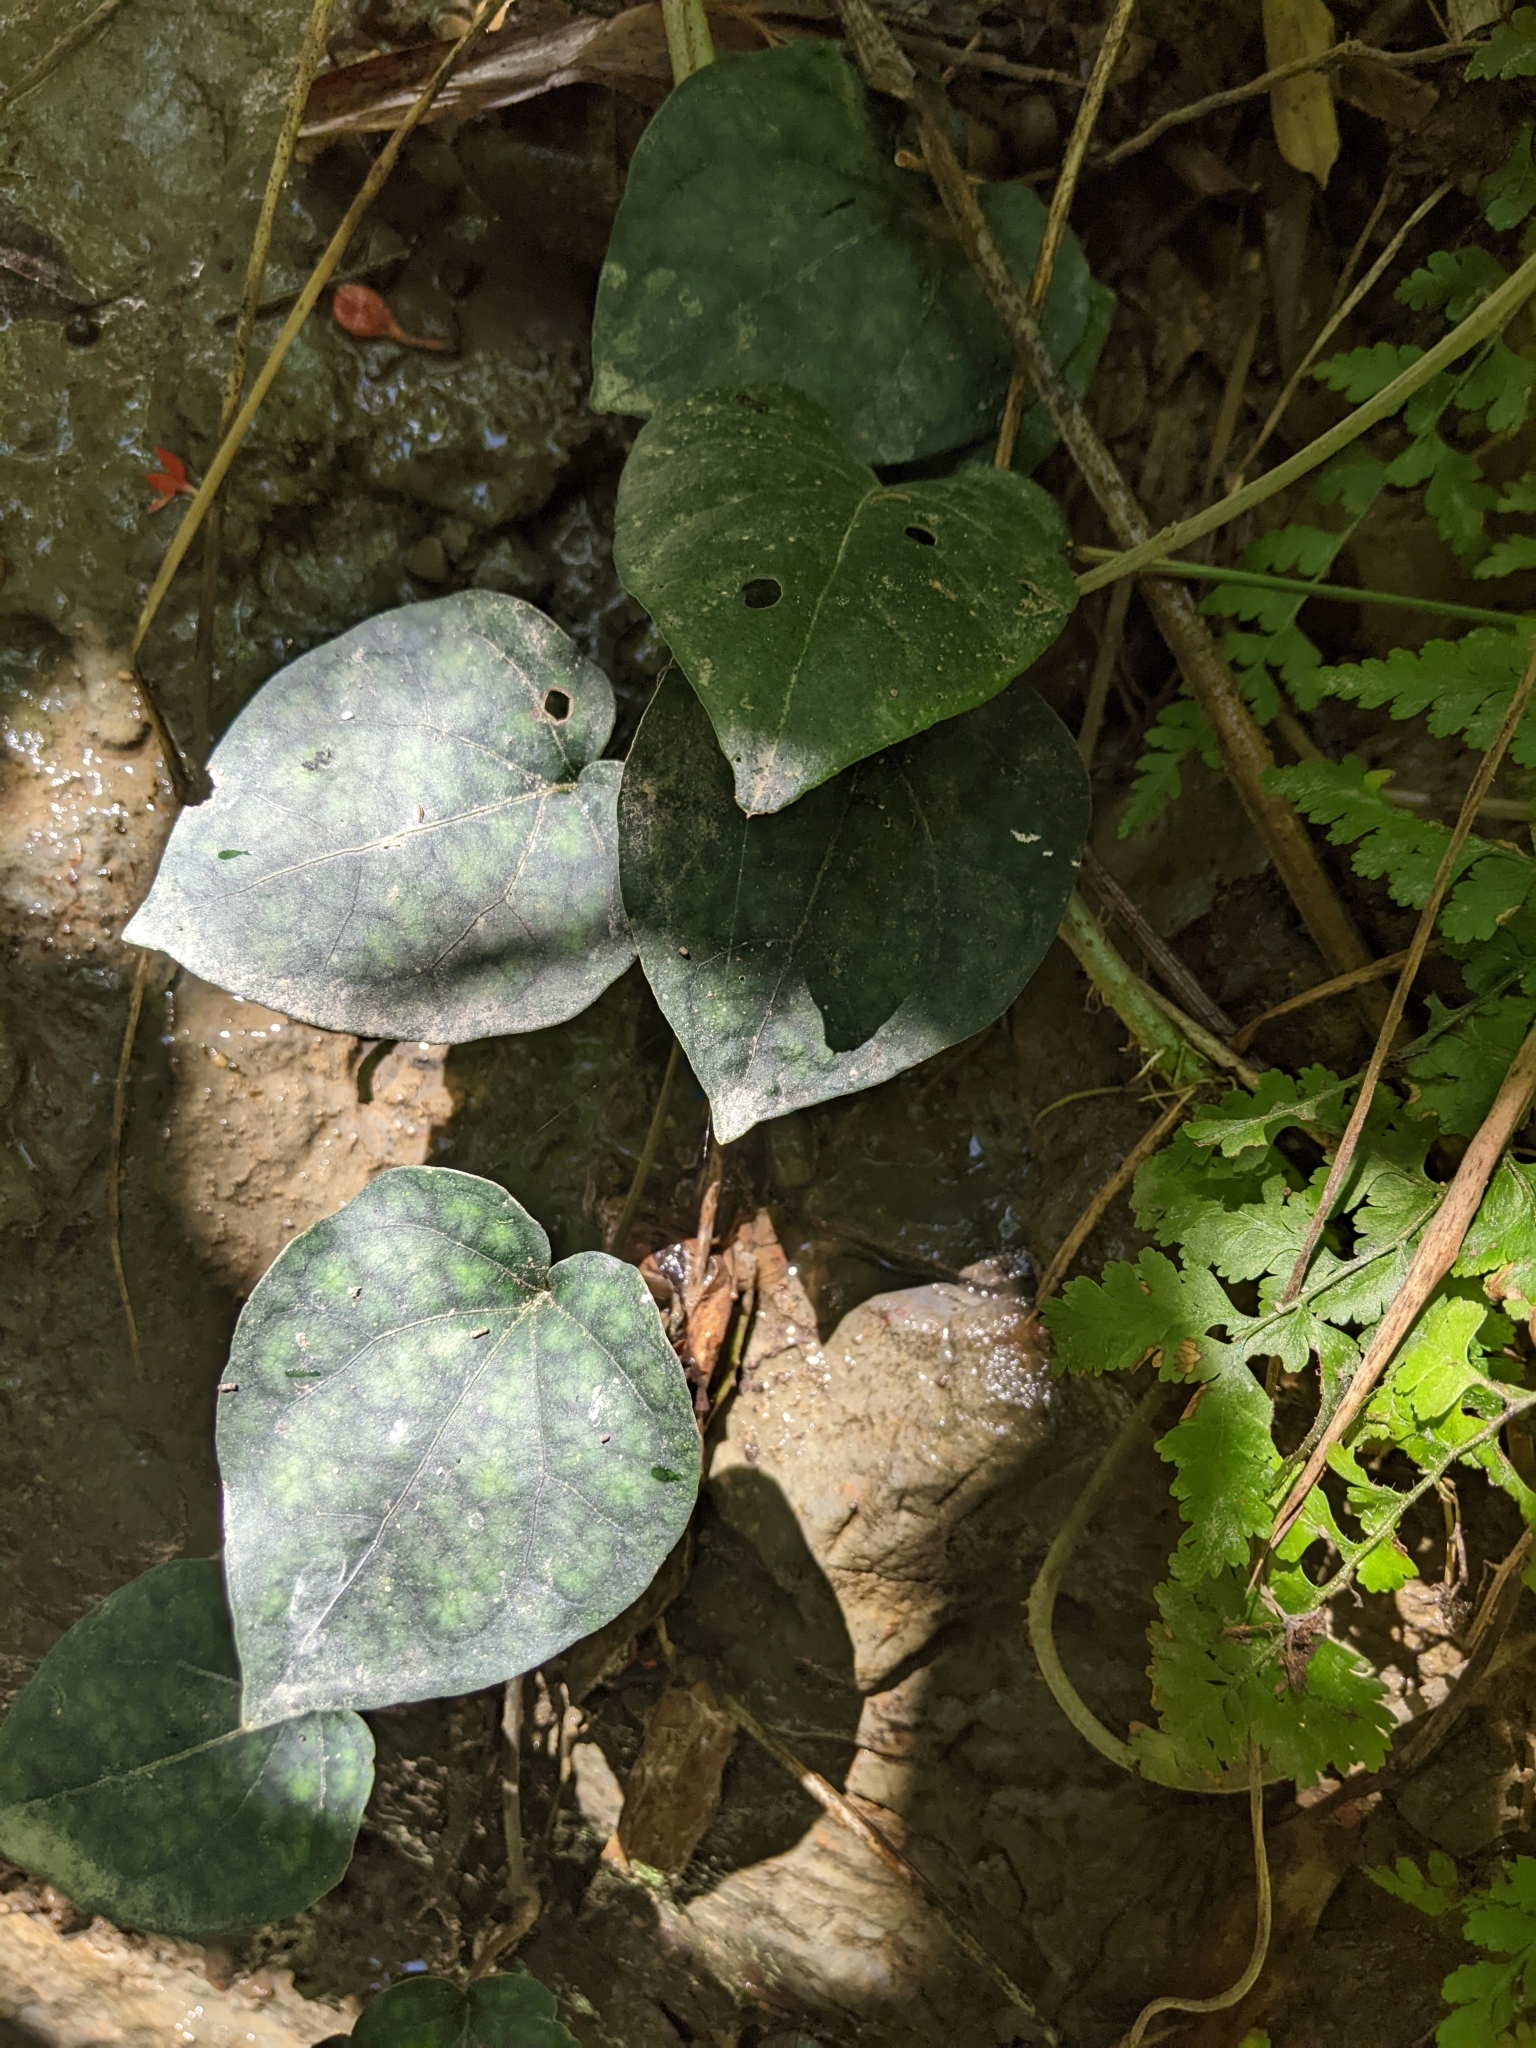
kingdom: Plantae
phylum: Tracheophyta
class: Magnoliopsida
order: Piperales
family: Piperaceae
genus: Piper
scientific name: Piper kadsura
